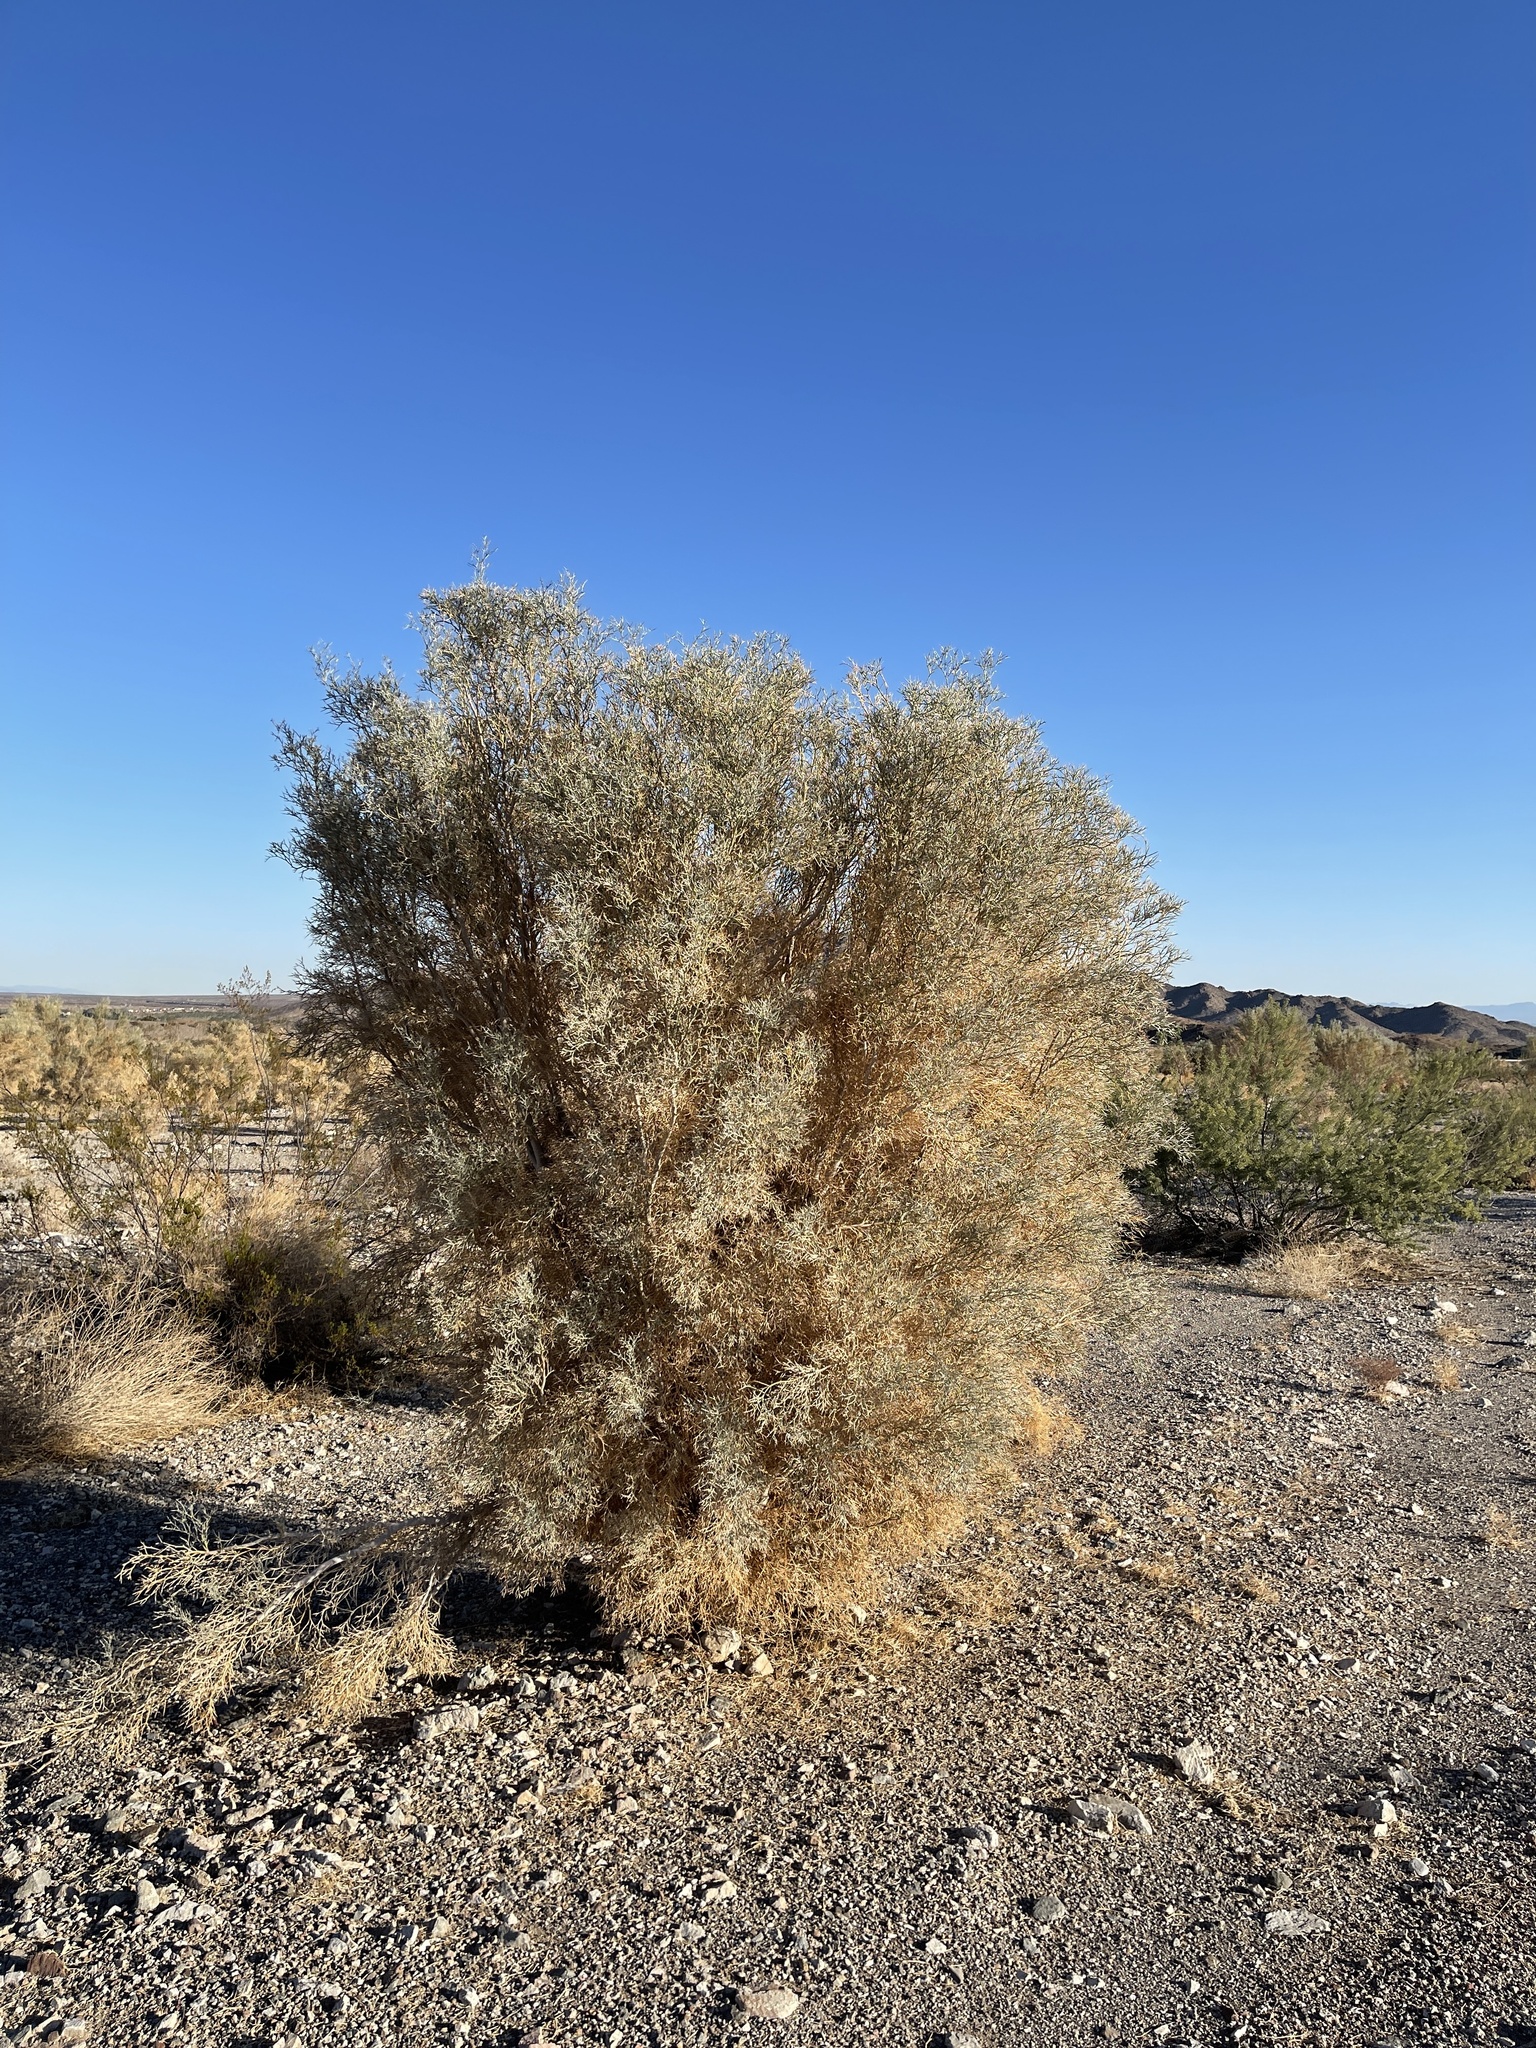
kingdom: Plantae
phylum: Tracheophyta
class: Magnoliopsida
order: Fabales
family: Fabaceae
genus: Psorothamnus
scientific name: Psorothamnus spinosus
